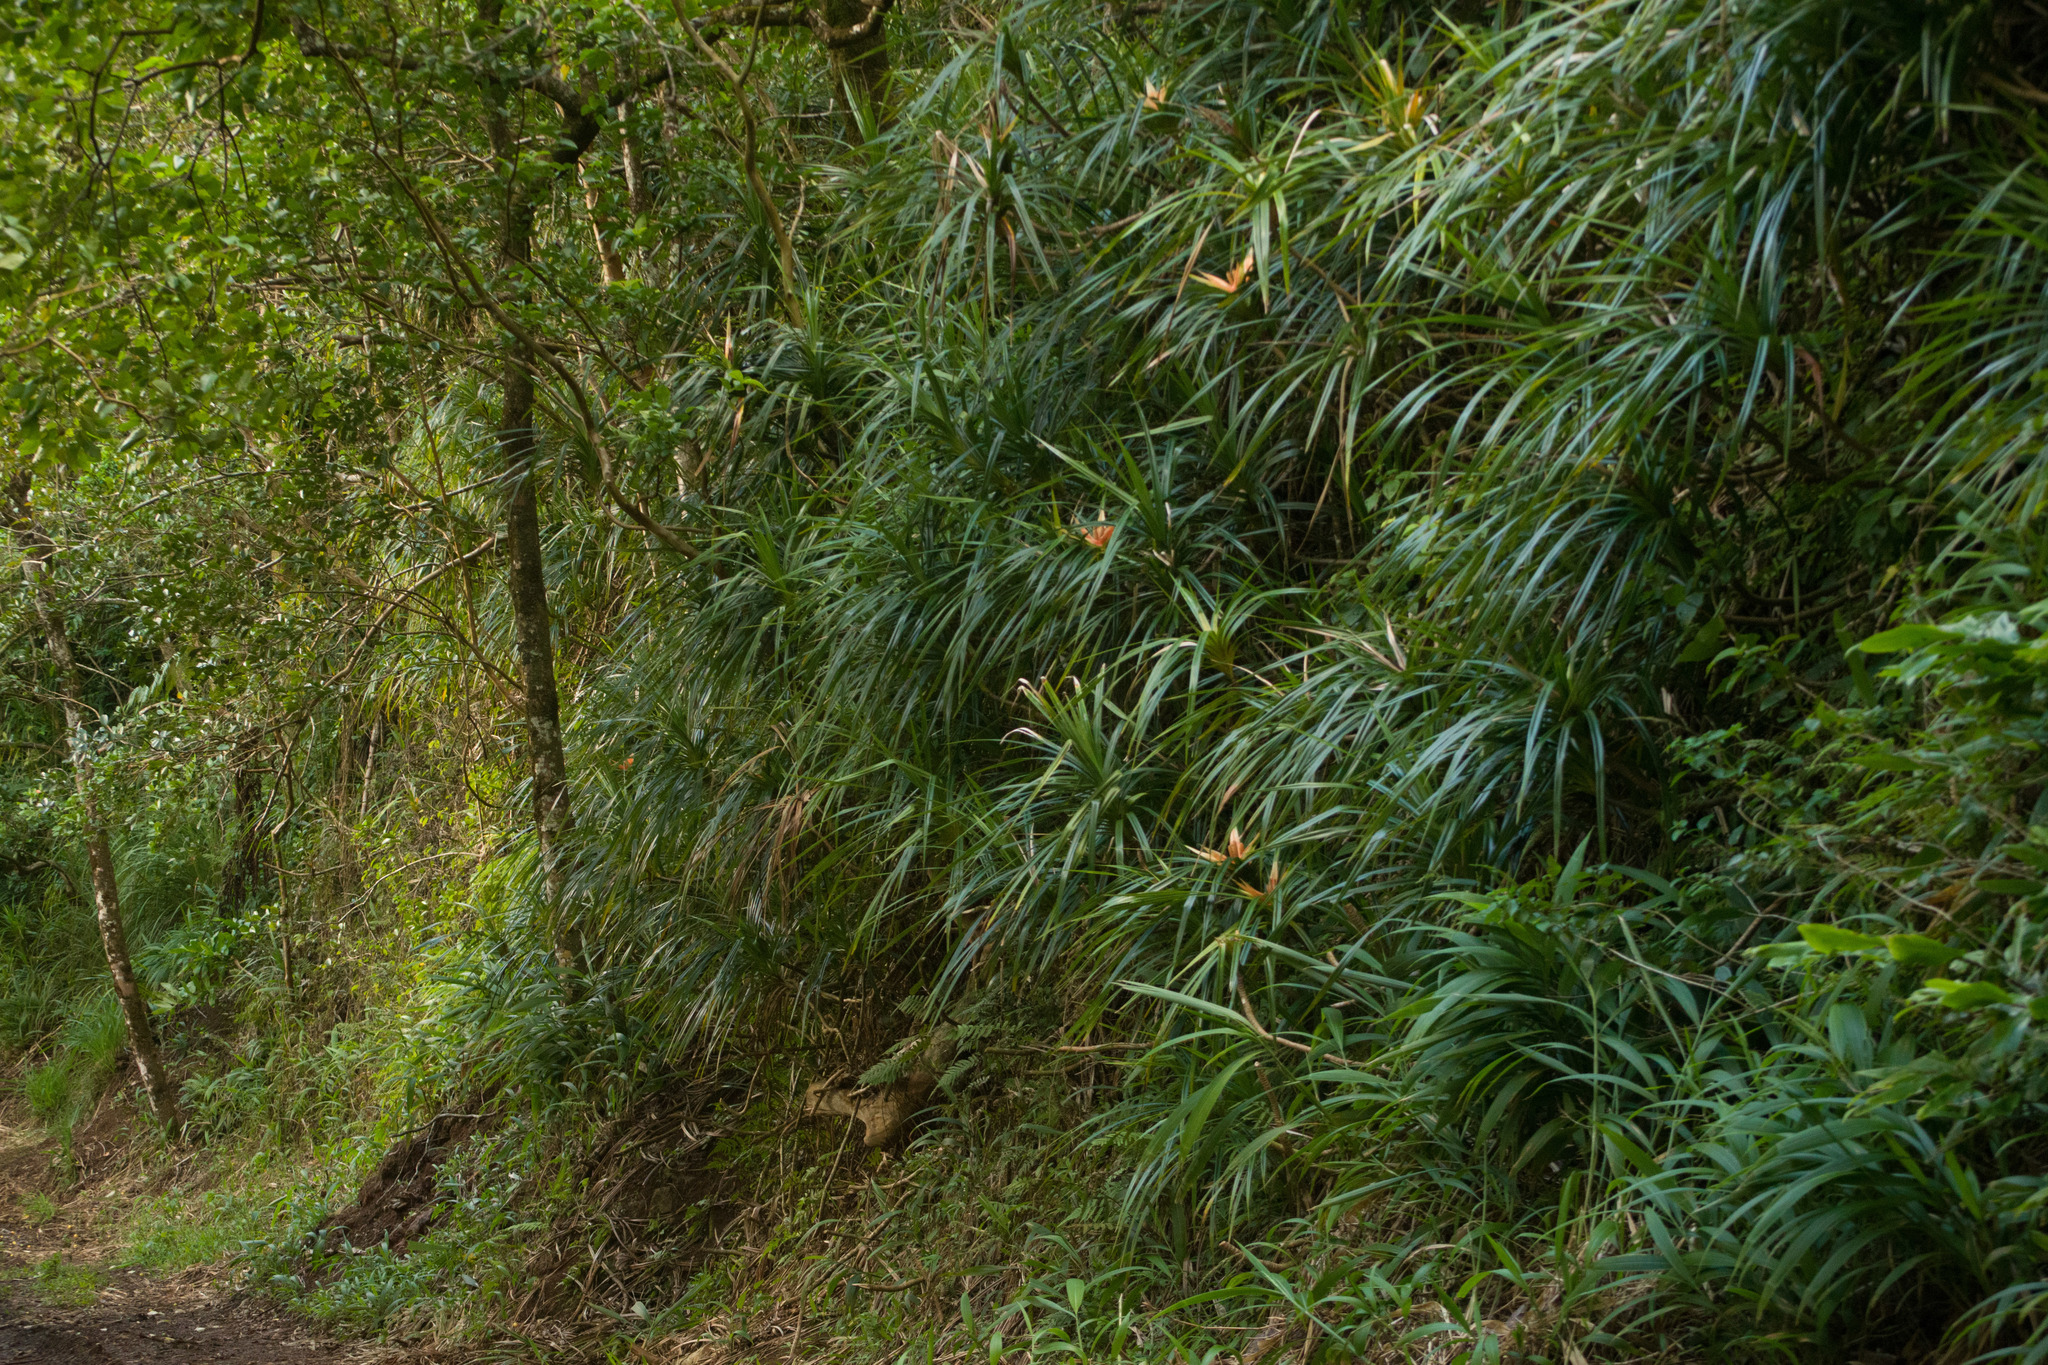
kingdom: Plantae
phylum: Tracheophyta
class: Liliopsida
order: Pandanales
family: Pandanaceae
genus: Freycinetia
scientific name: Freycinetia arborea
